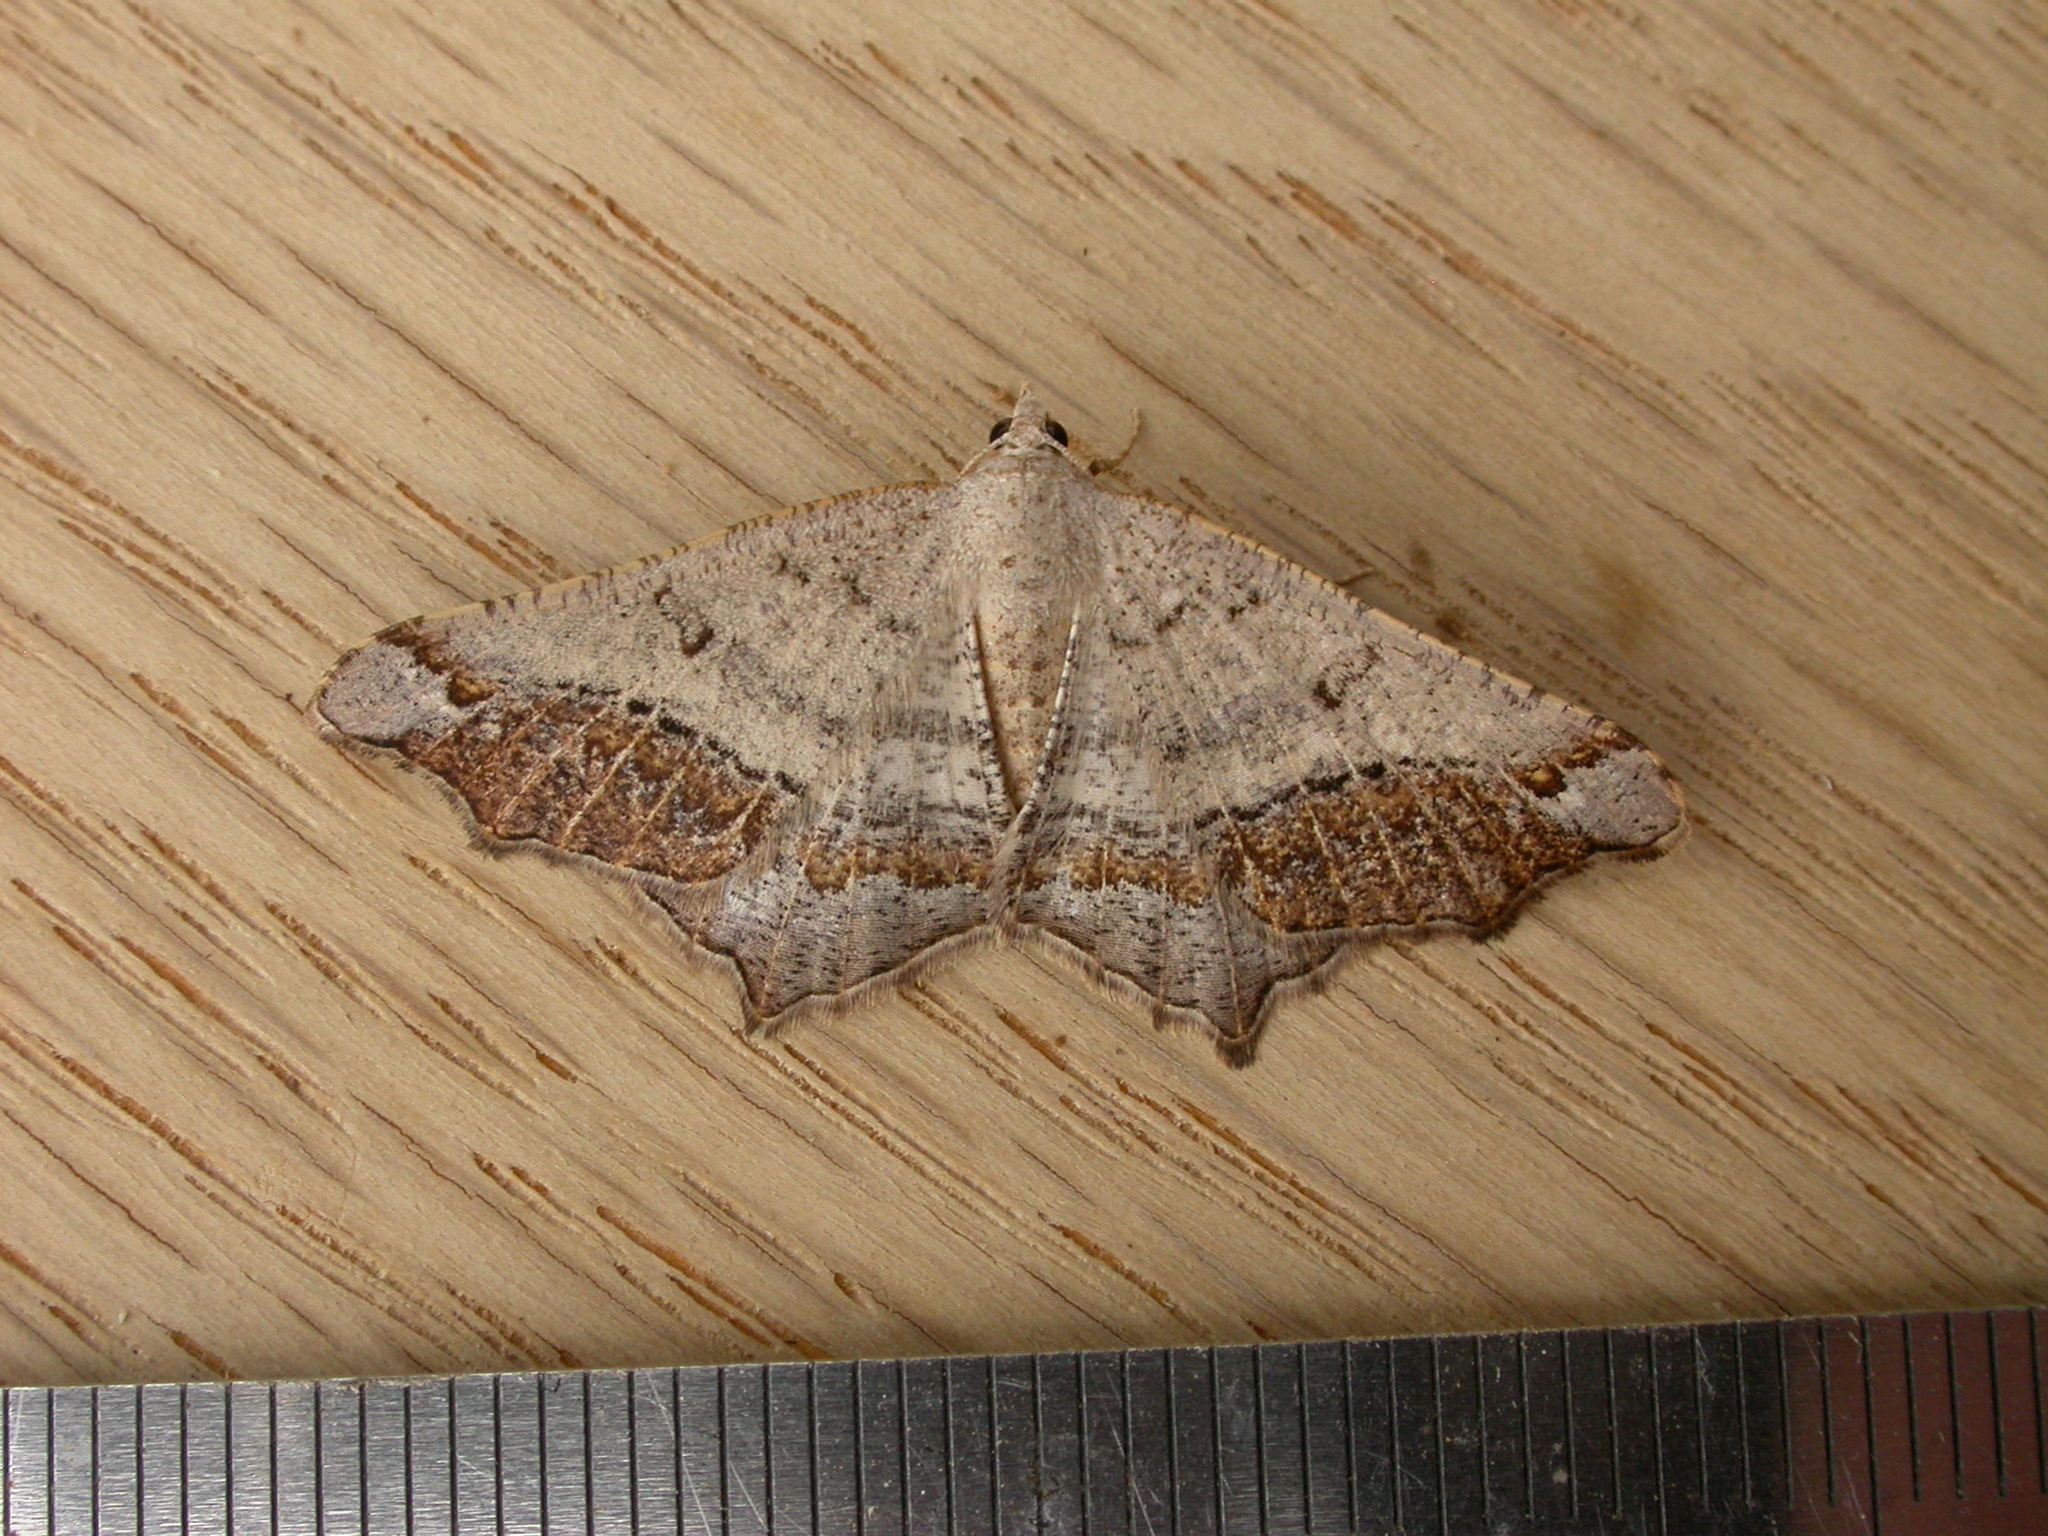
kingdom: Animalia
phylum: Arthropoda
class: Insecta
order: Lepidoptera
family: Geometridae
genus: Dissomorphia
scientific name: Dissomorphia australiaria
